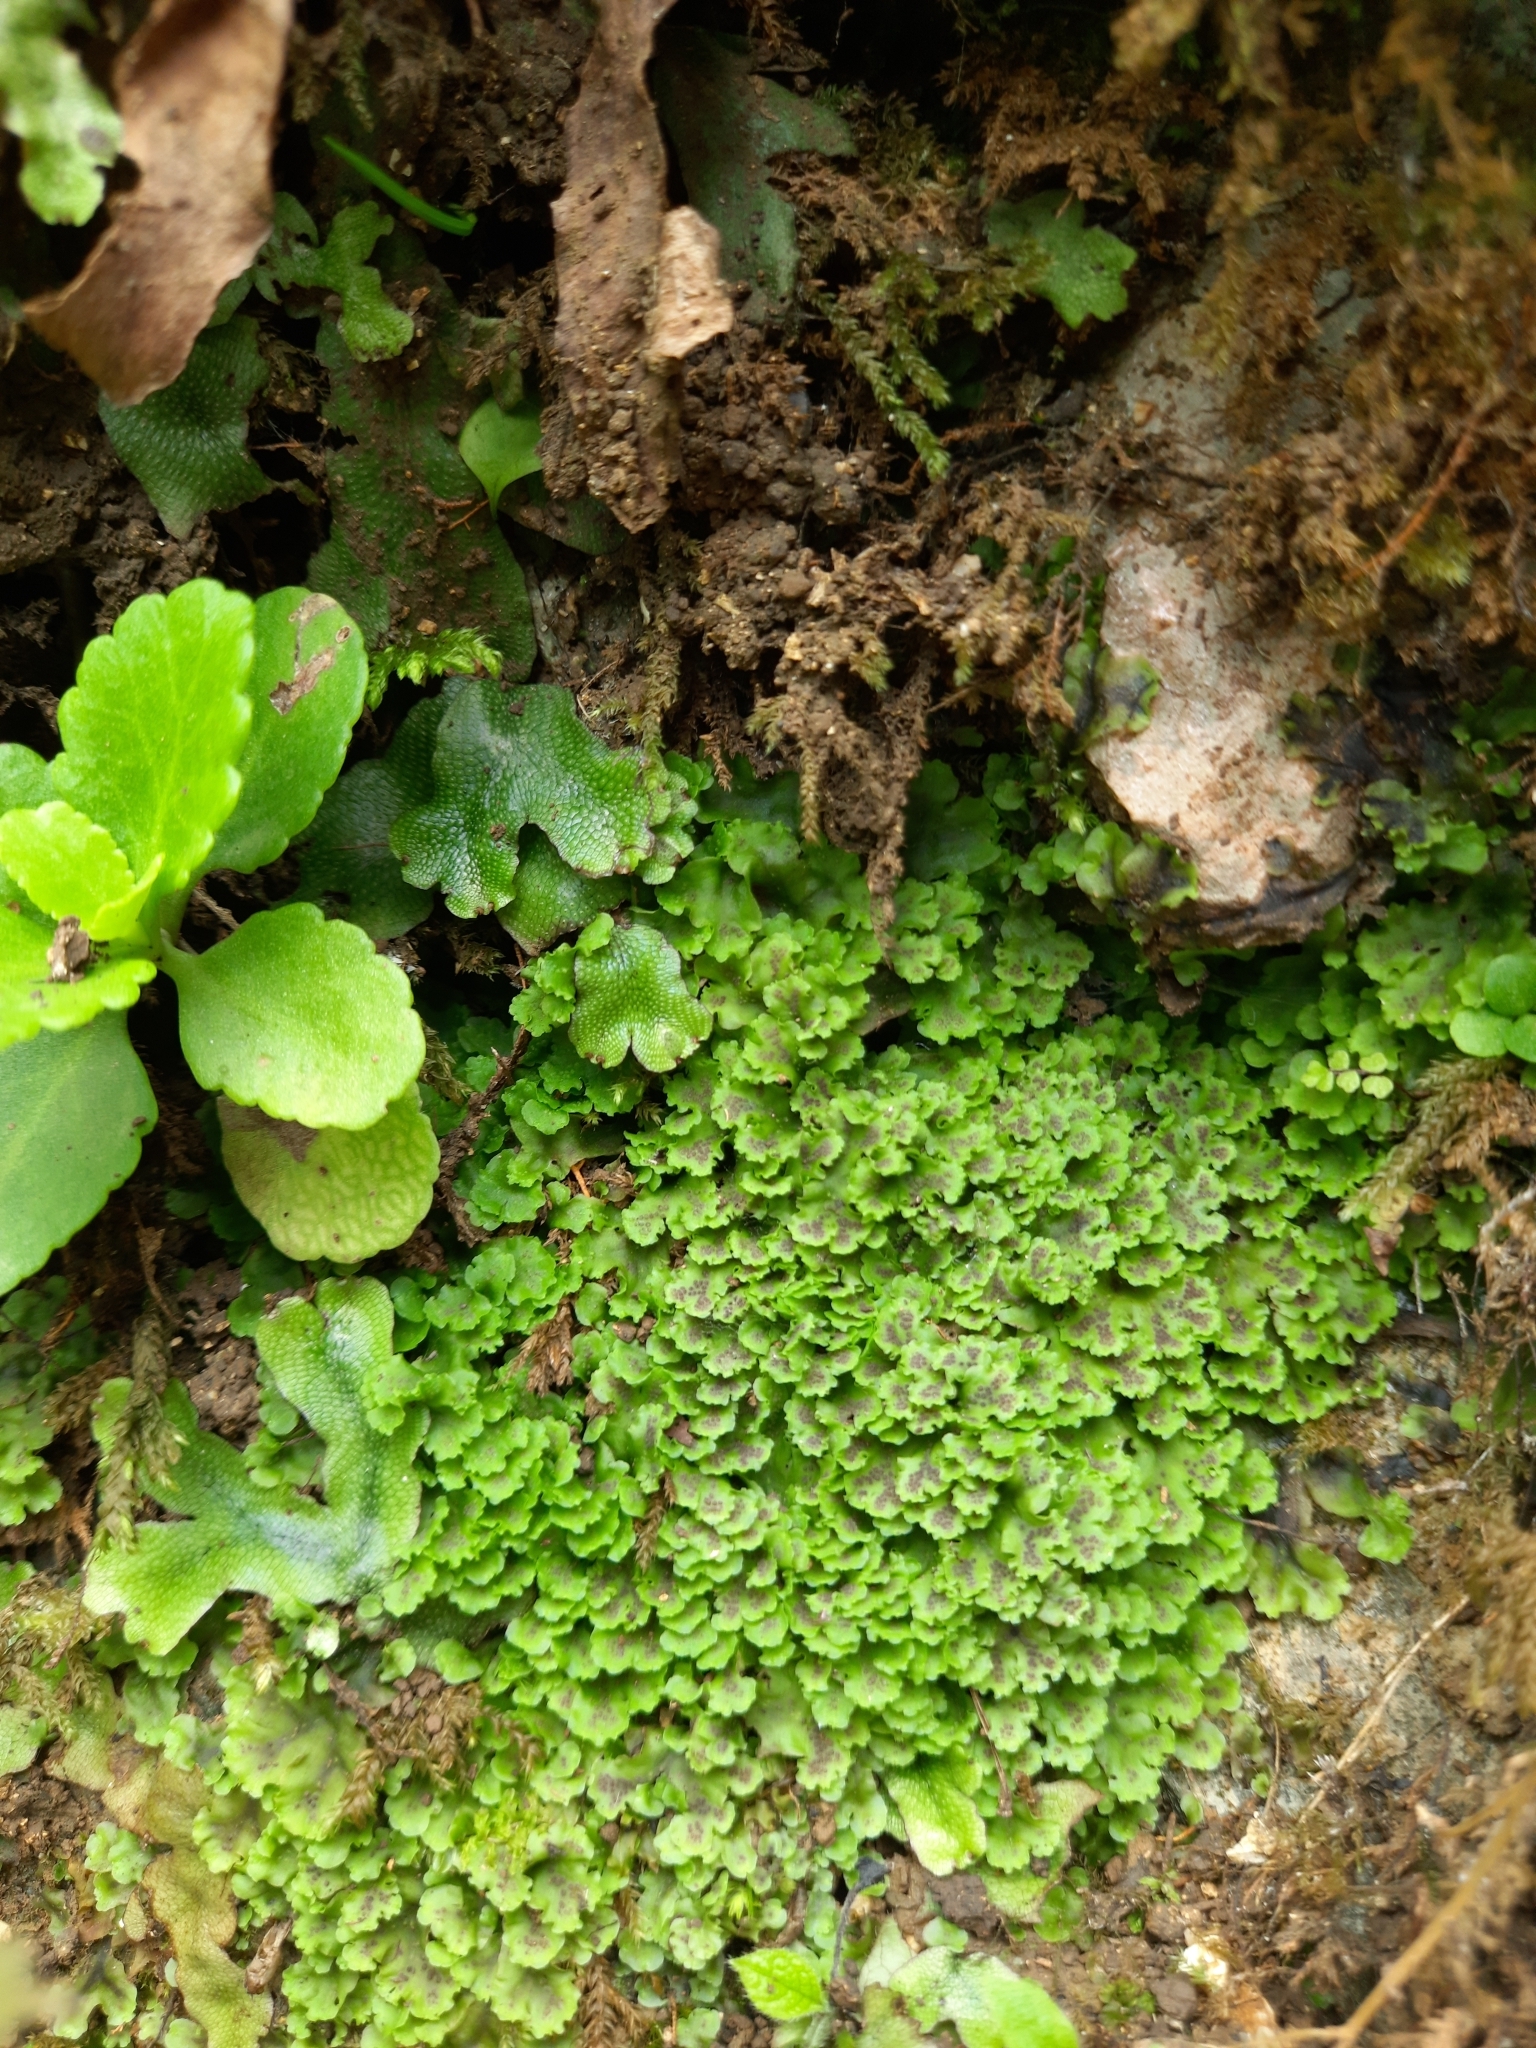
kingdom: Plantae
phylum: Marchantiophyta
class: Marchantiopsida
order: Marchantiales
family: Conocephalaceae
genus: Conocephalum
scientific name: Conocephalum salebrosum
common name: Cat-tongue liverwort
